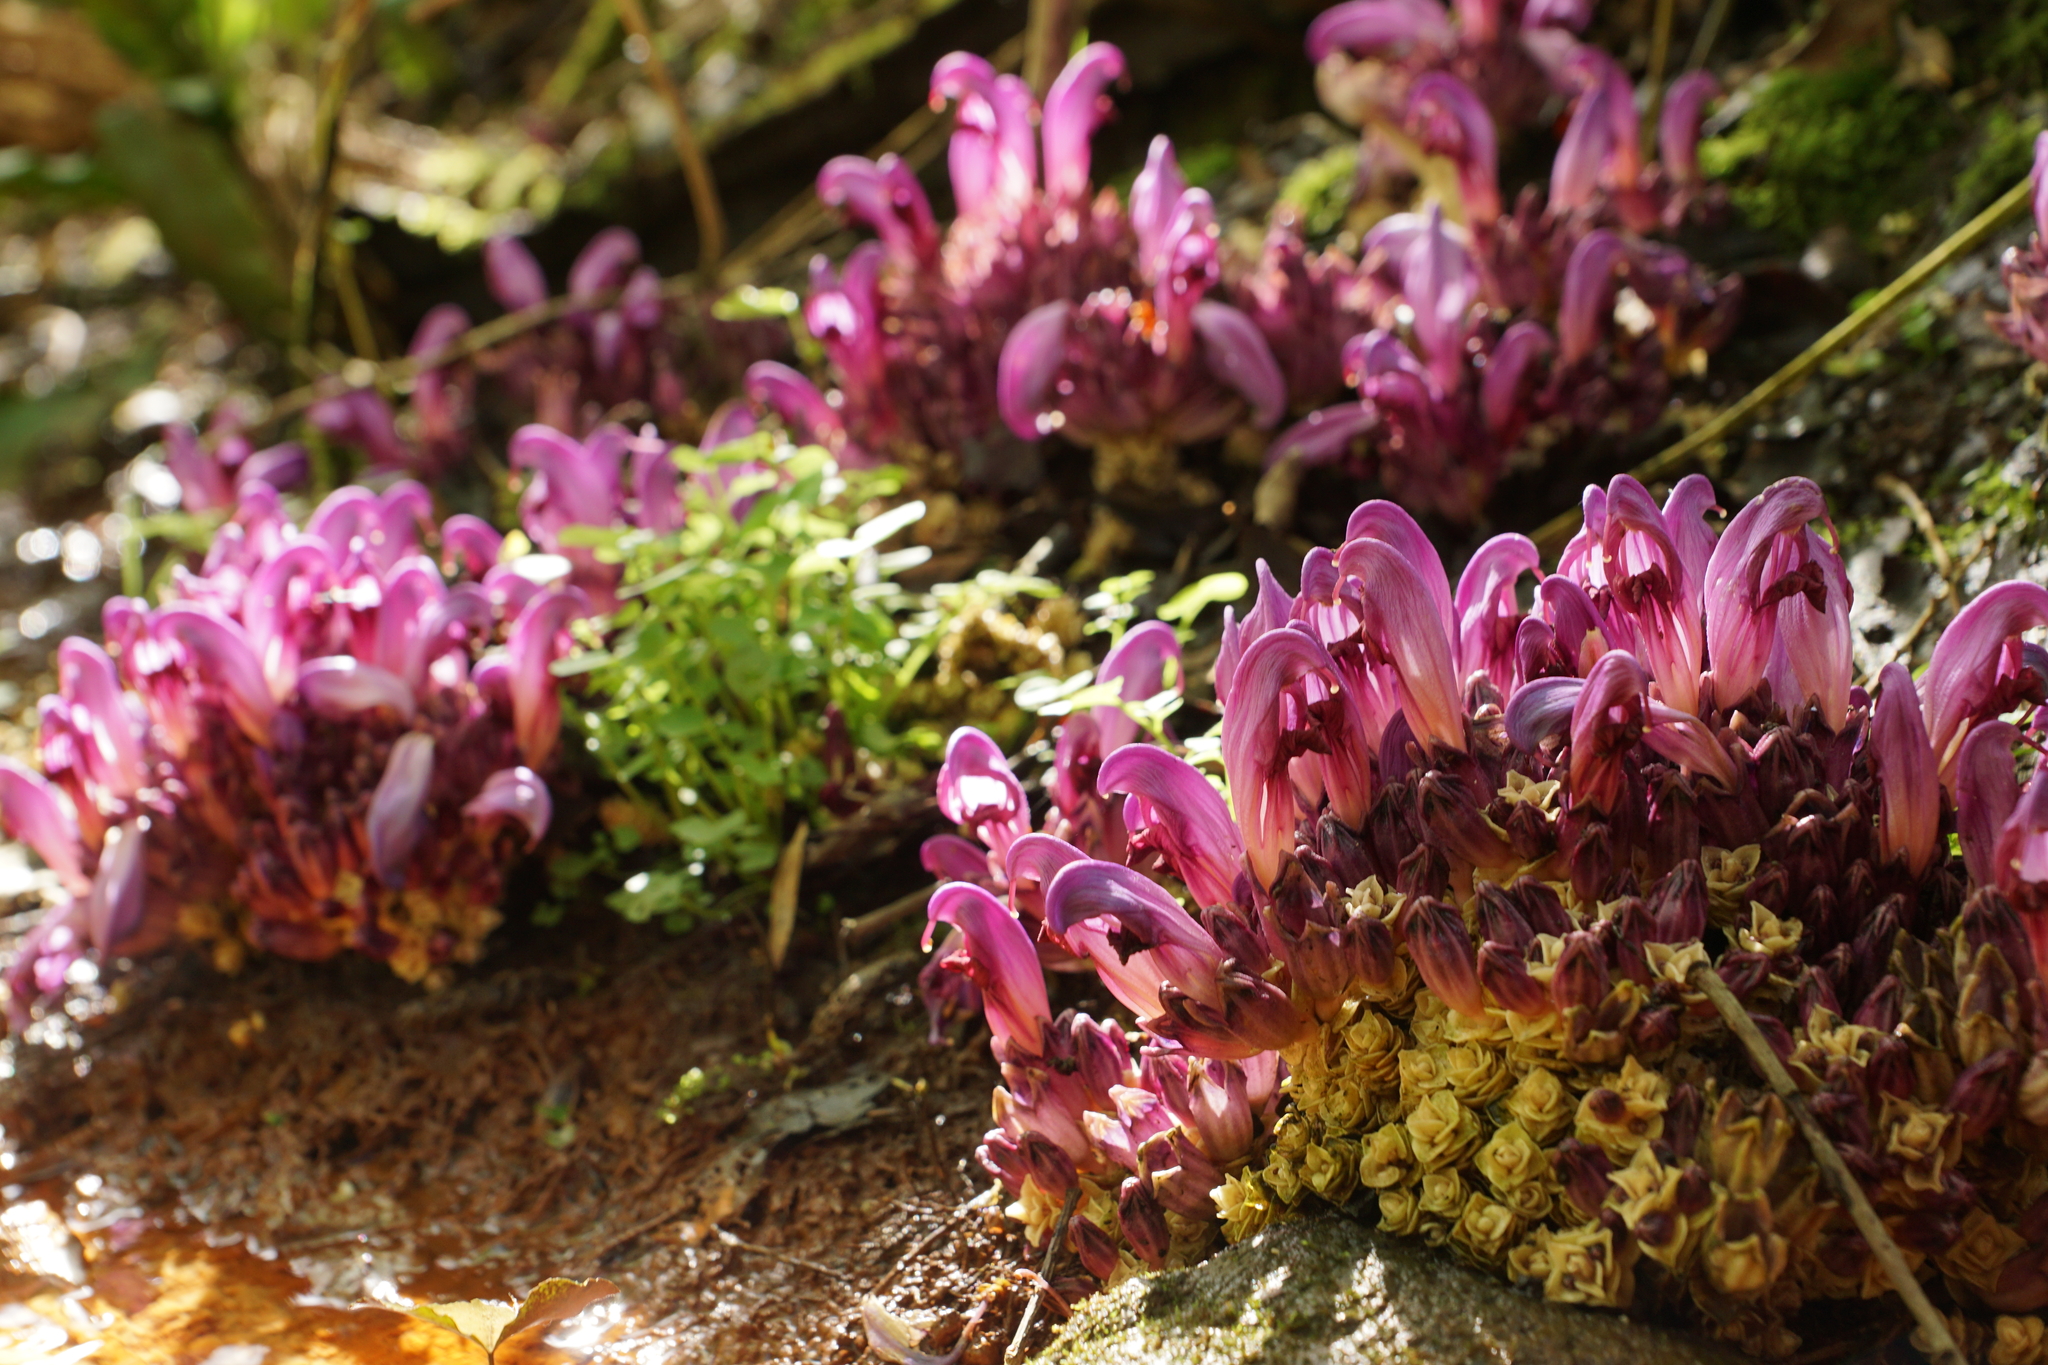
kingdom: Plantae
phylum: Tracheophyta
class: Magnoliopsida
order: Lamiales
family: Orobanchaceae
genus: Lathraea
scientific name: Lathraea clandestina
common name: Purple toothwort
